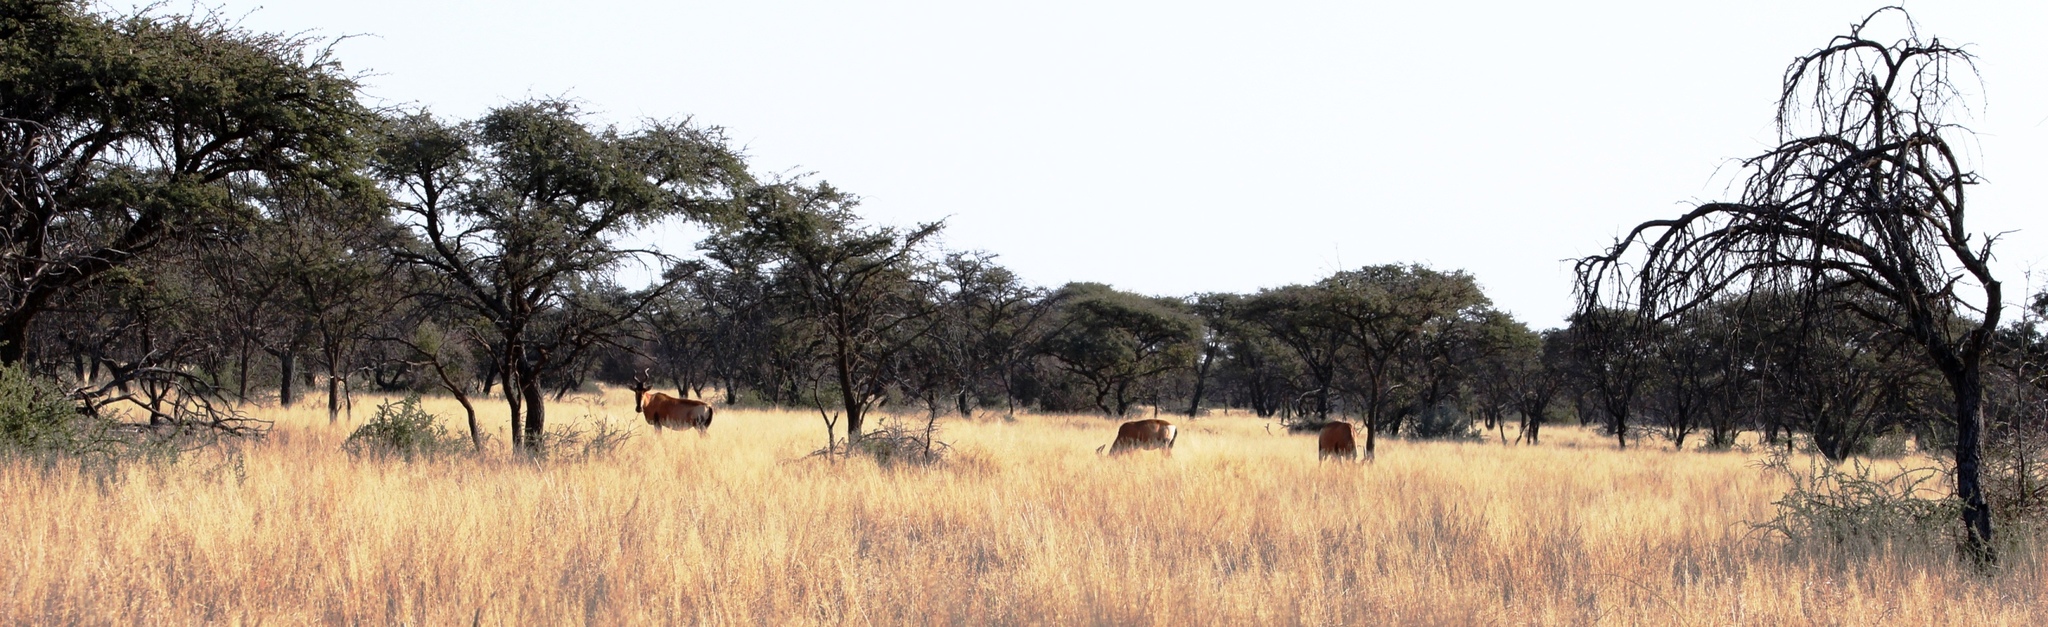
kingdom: Animalia
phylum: Chordata
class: Mammalia
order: Artiodactyla
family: Bovidae
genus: Alcelaphus
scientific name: Alcelaphus caama
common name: Red hartebeest
